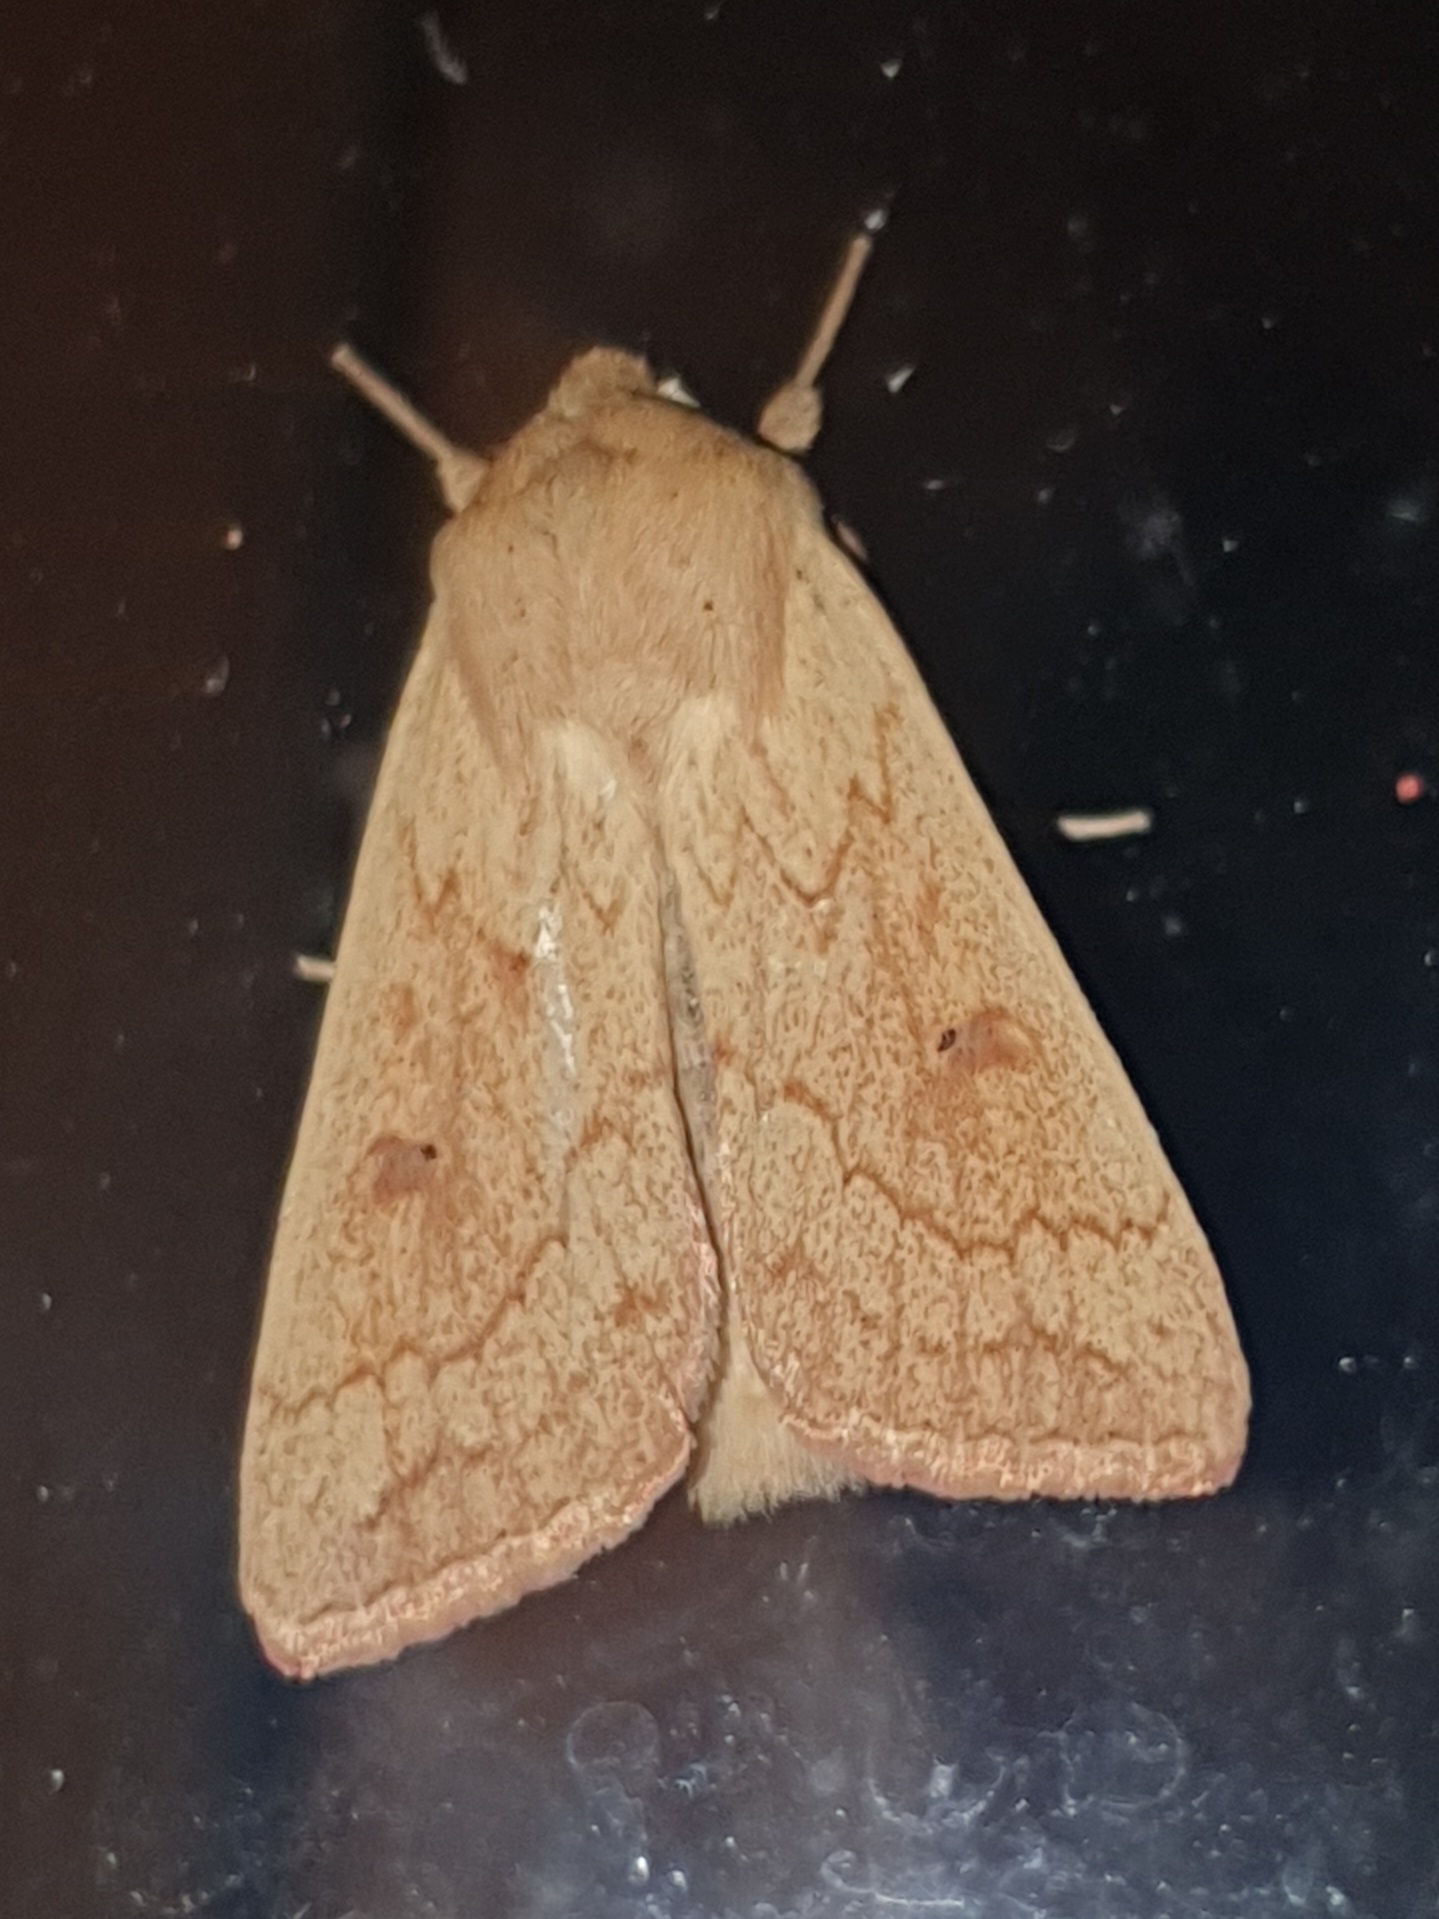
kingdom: Animalia
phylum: Arthropoda
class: Insecta
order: Lepidoptera
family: Noctuidae
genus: Mythimna
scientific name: Mythimna vitellina
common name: Delicate
